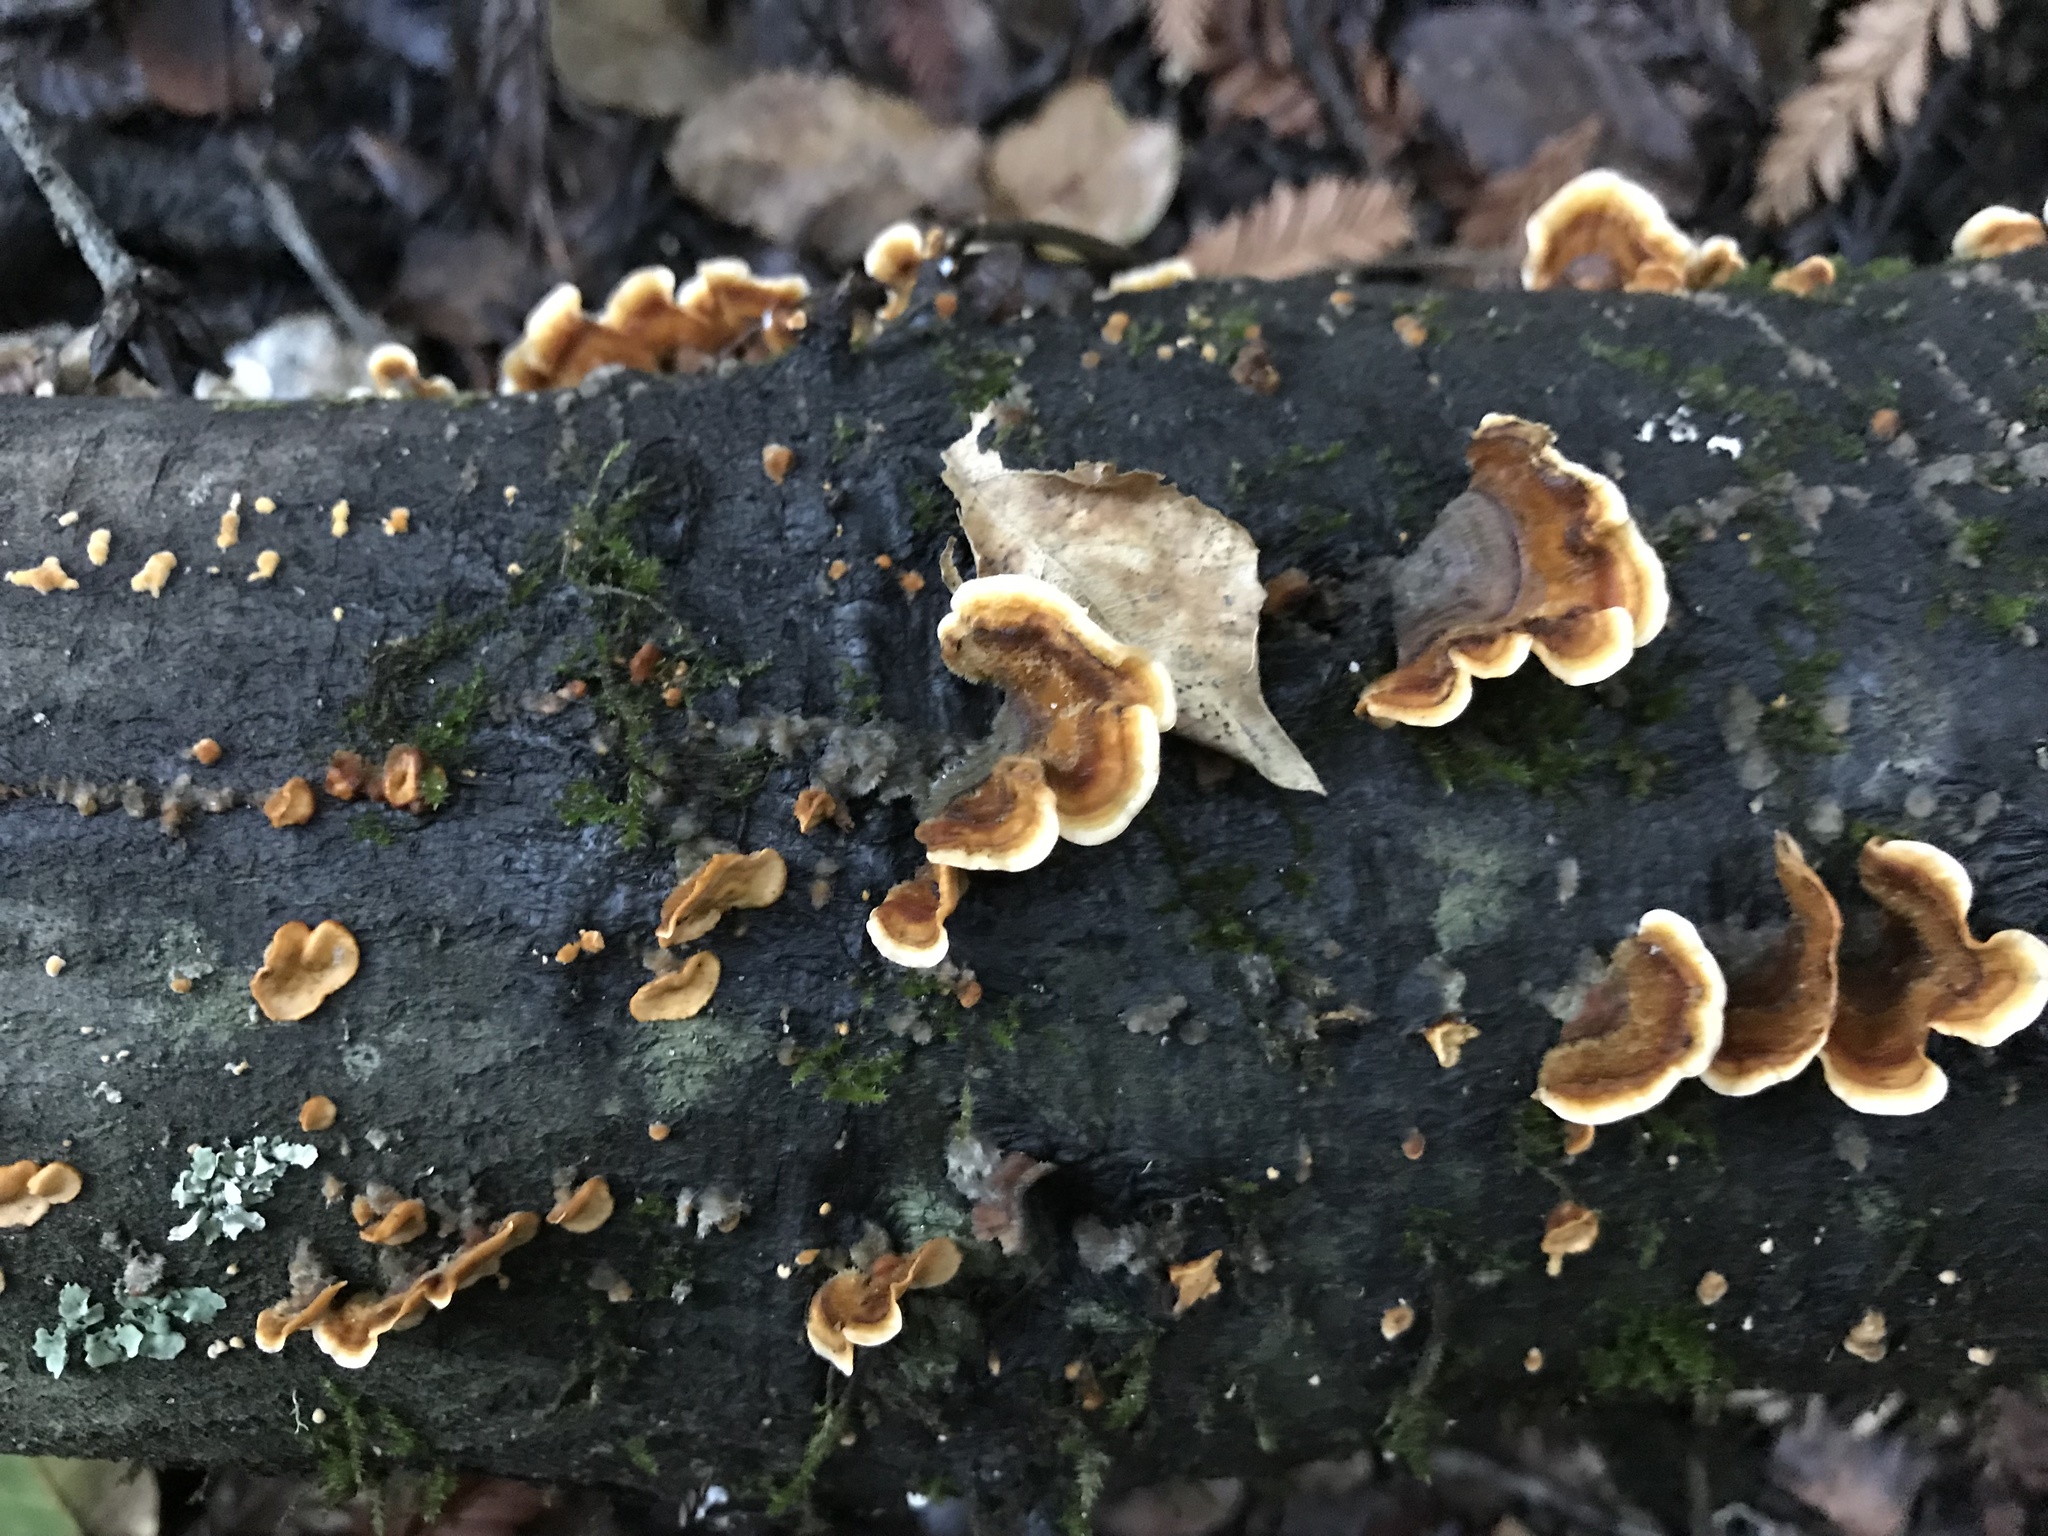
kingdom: Fungi
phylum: Basidiomycota
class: Agaricomycetes
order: Russulales
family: Stereaceae
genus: Stereum
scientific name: Stereum hirsutum
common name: Hairy curtain crust
